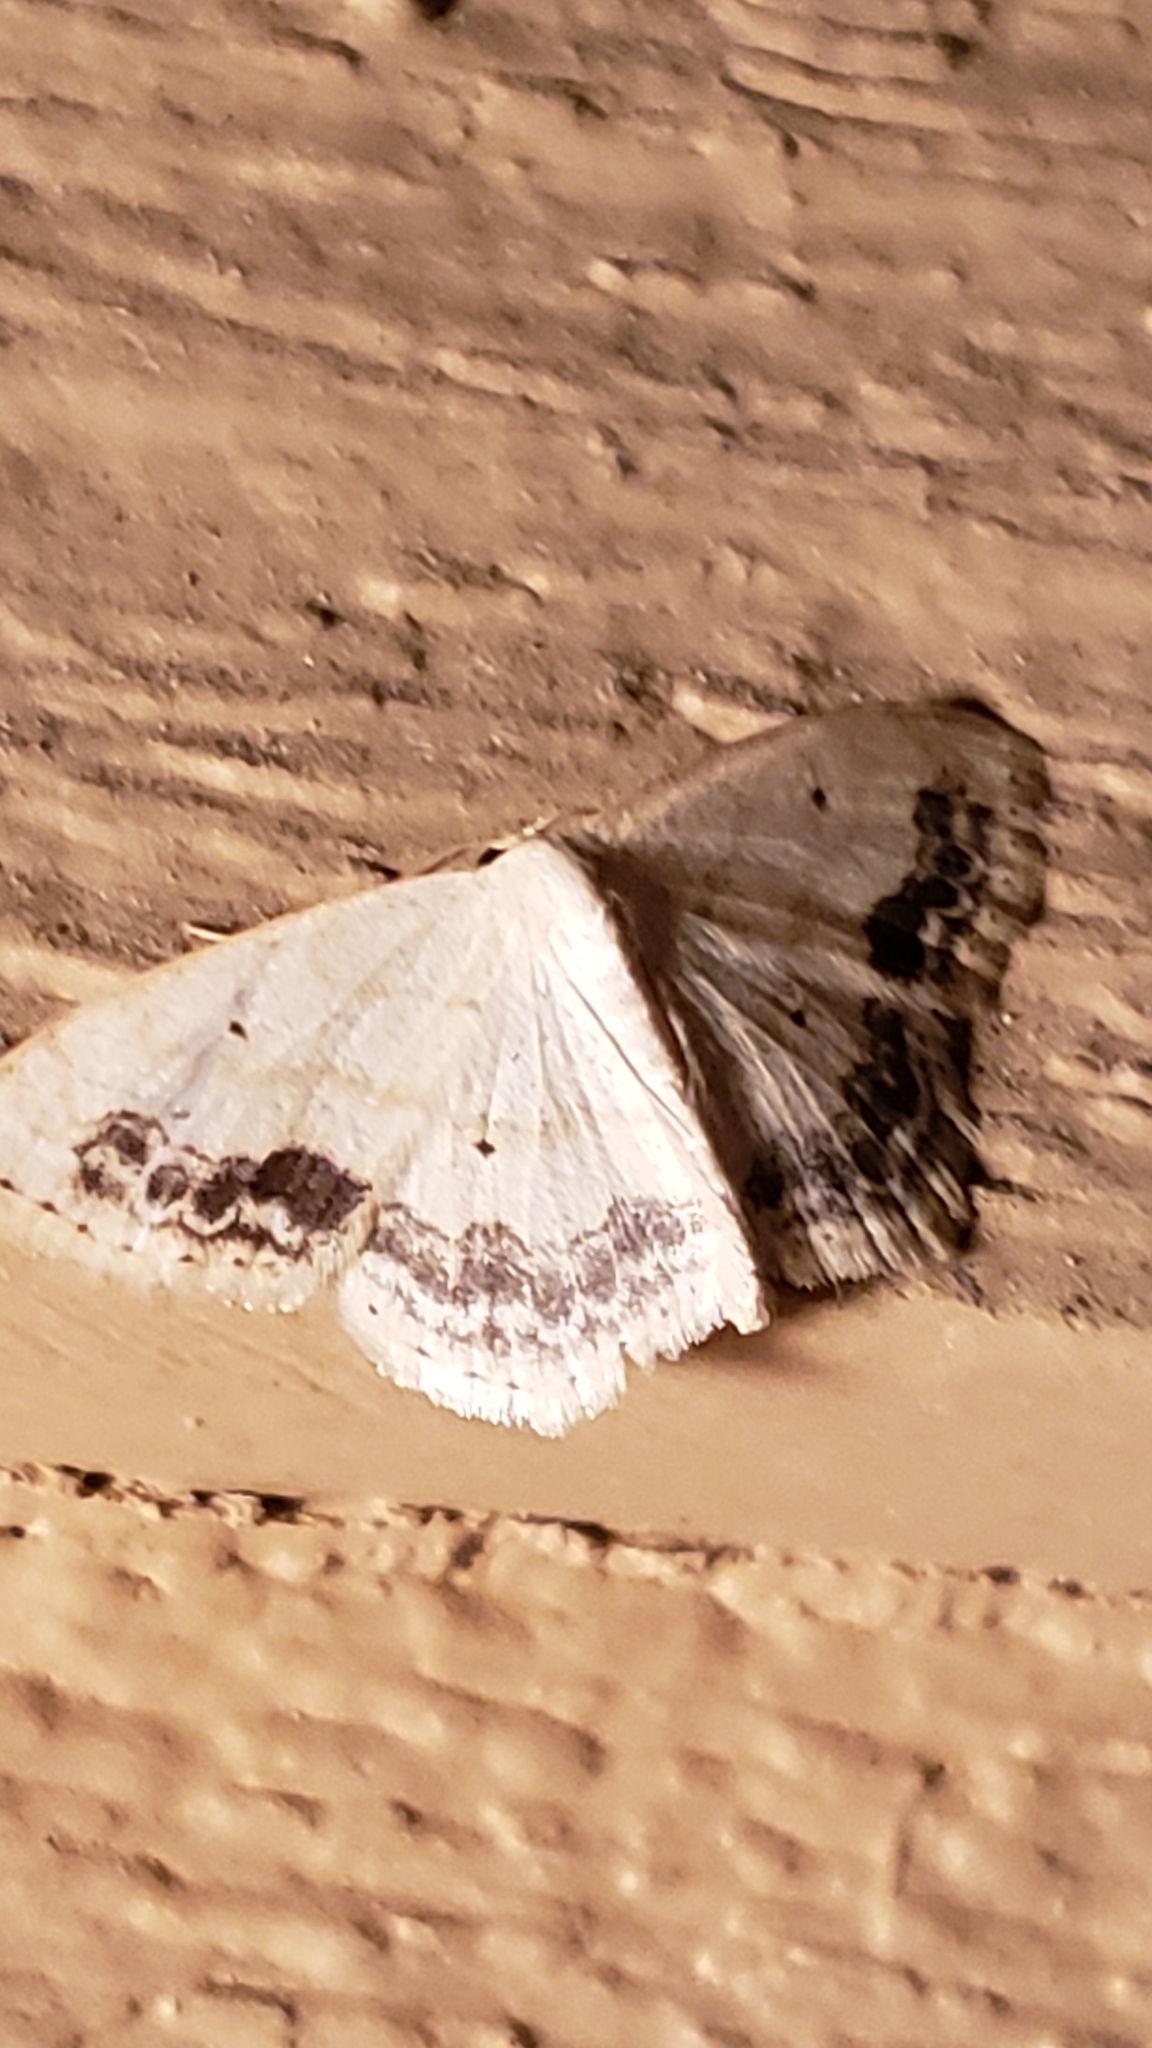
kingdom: Animalia
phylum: Arthropoda
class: Insecta
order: Lepidoptera
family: Geometridae
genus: Scopula
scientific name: Scopula limboundata
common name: Large lace border
